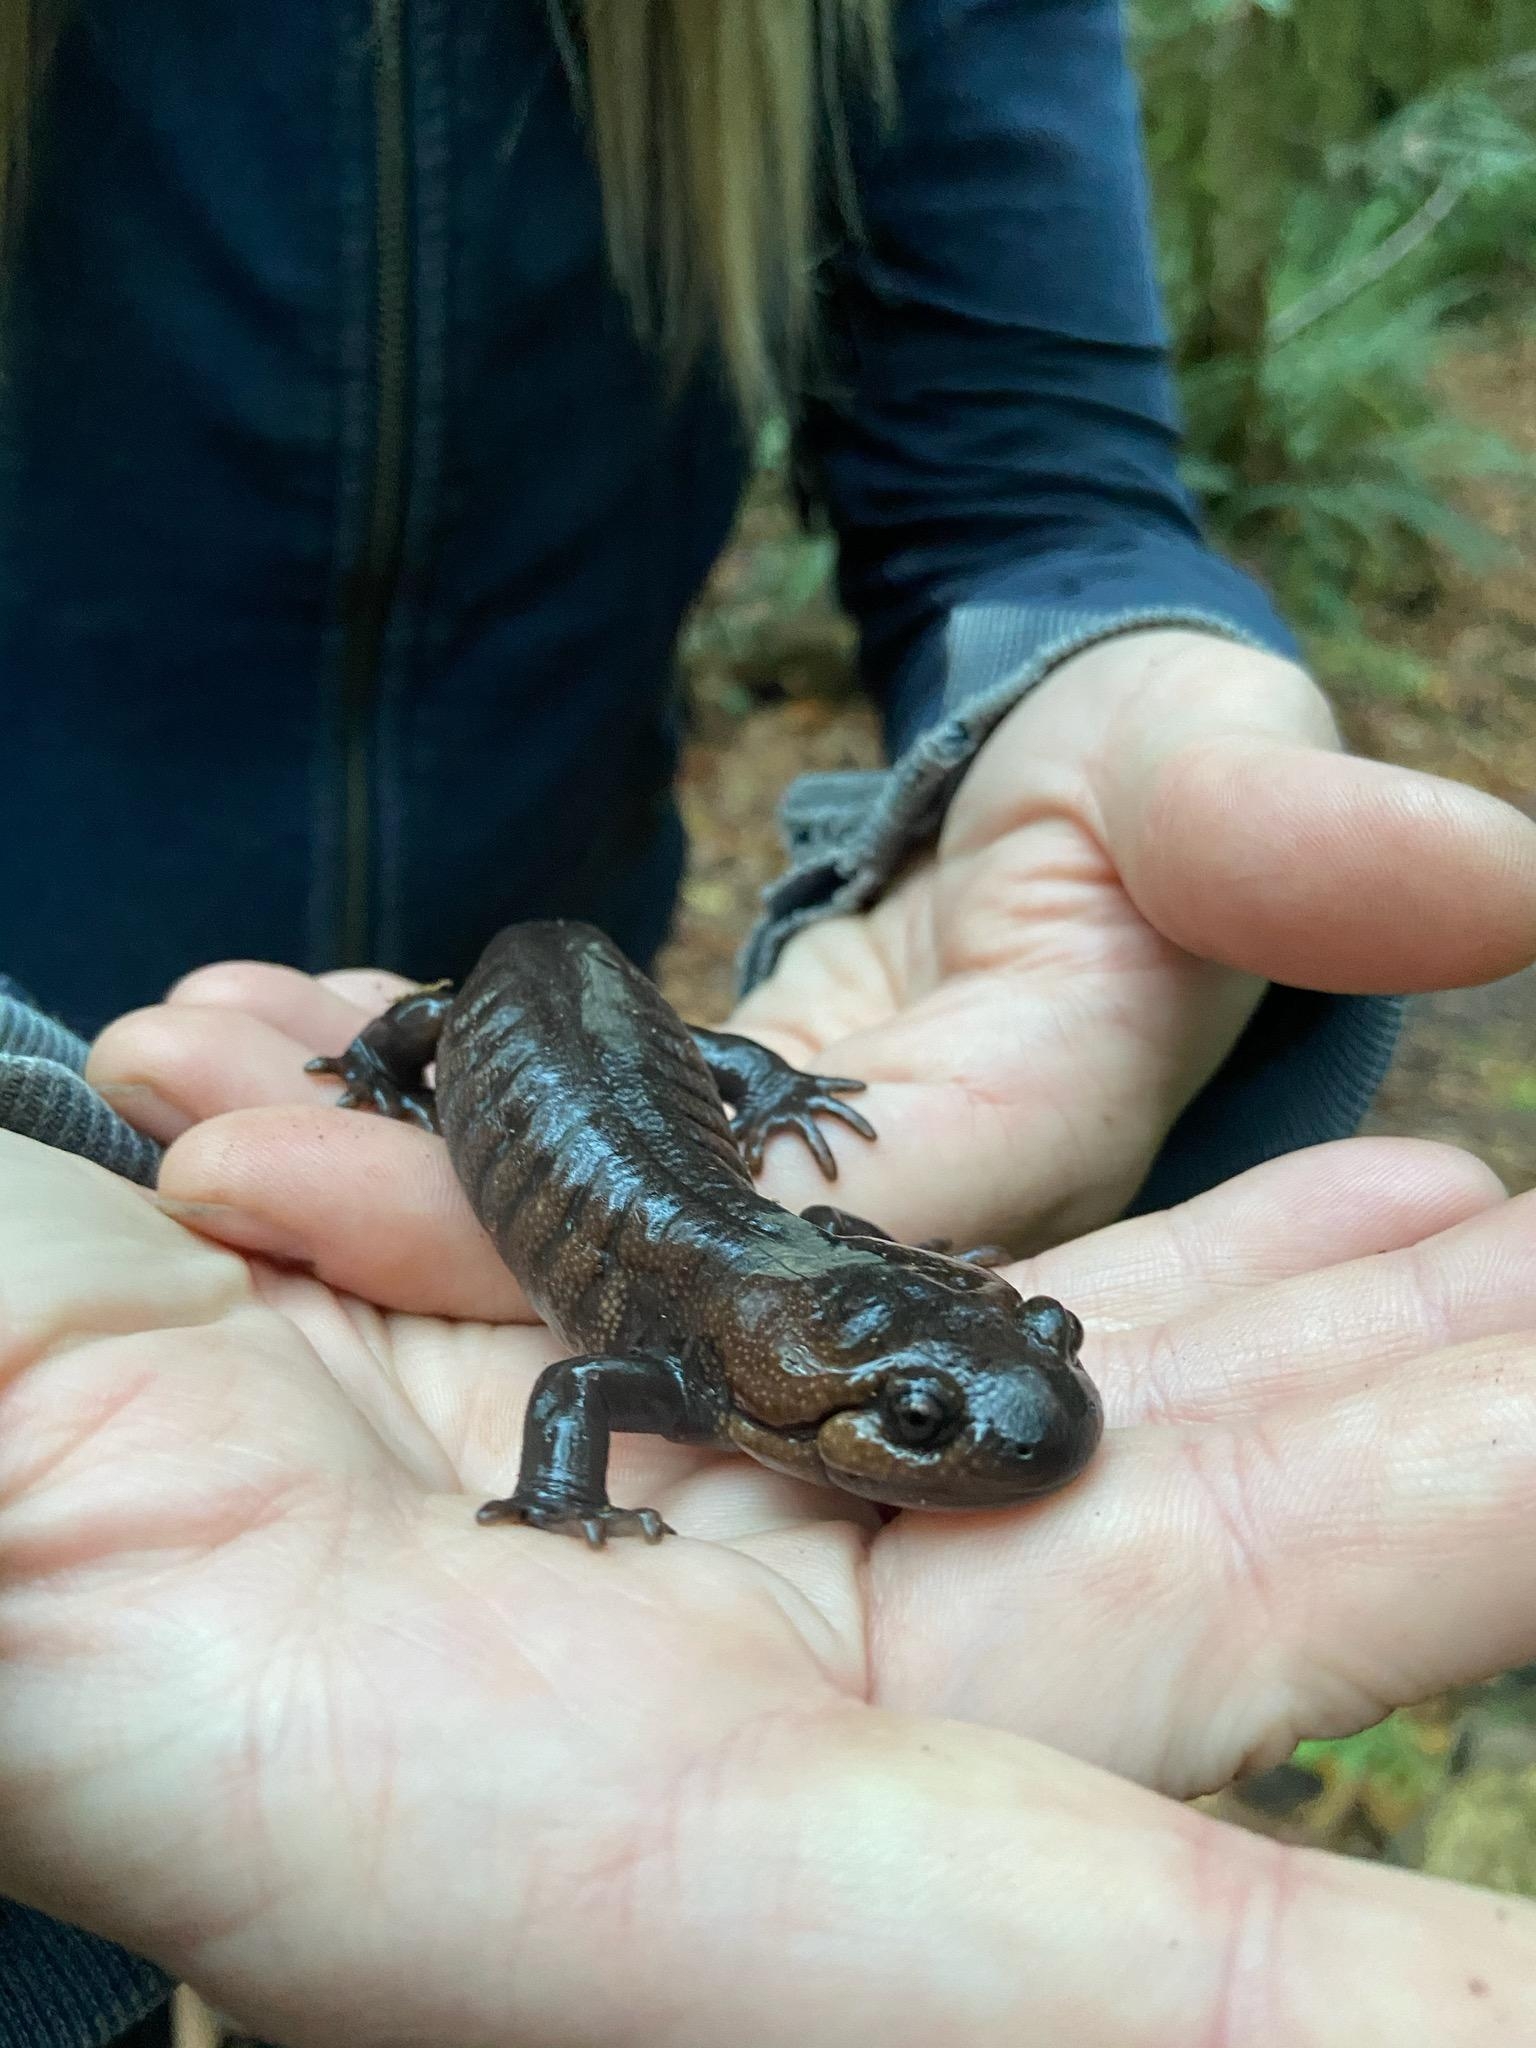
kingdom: Animalia
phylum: Chordata
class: Amphibia
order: Caudata
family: Ambystomatidae
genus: Ambystoma
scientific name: Ambystoma gracile
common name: Northwestern salamander
